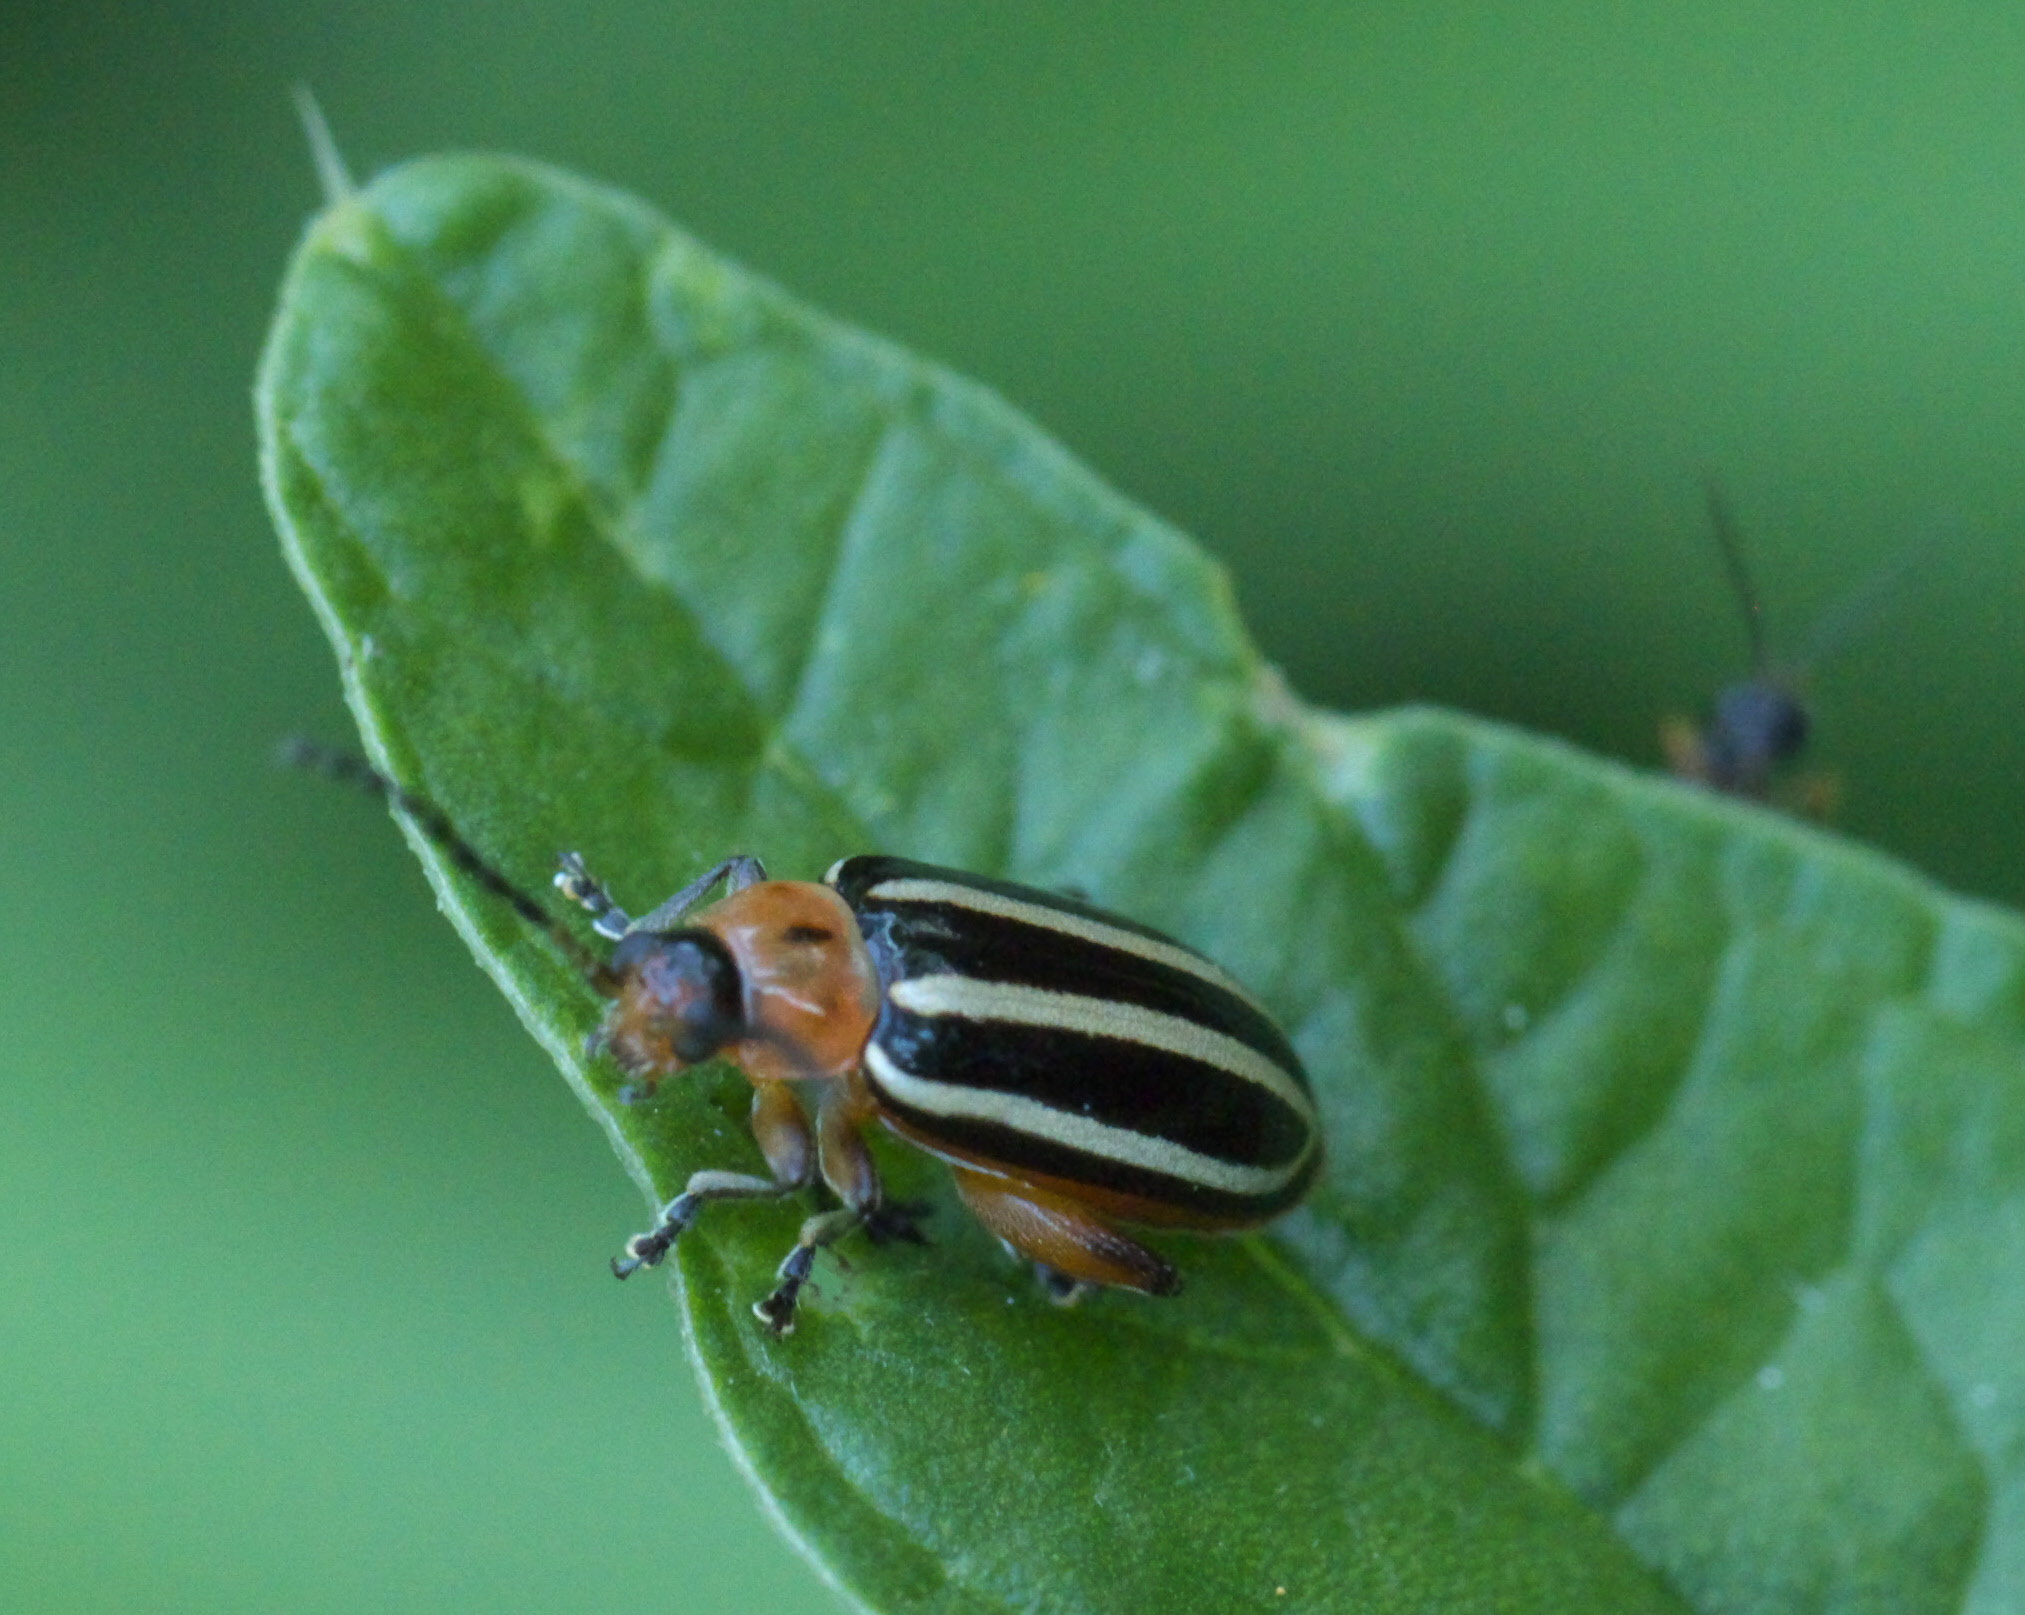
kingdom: Animalia
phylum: Arthropoda
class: Insecta
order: Coleoptera
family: Chrysomelidae
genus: Disonycha
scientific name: Disonycha glabrata
